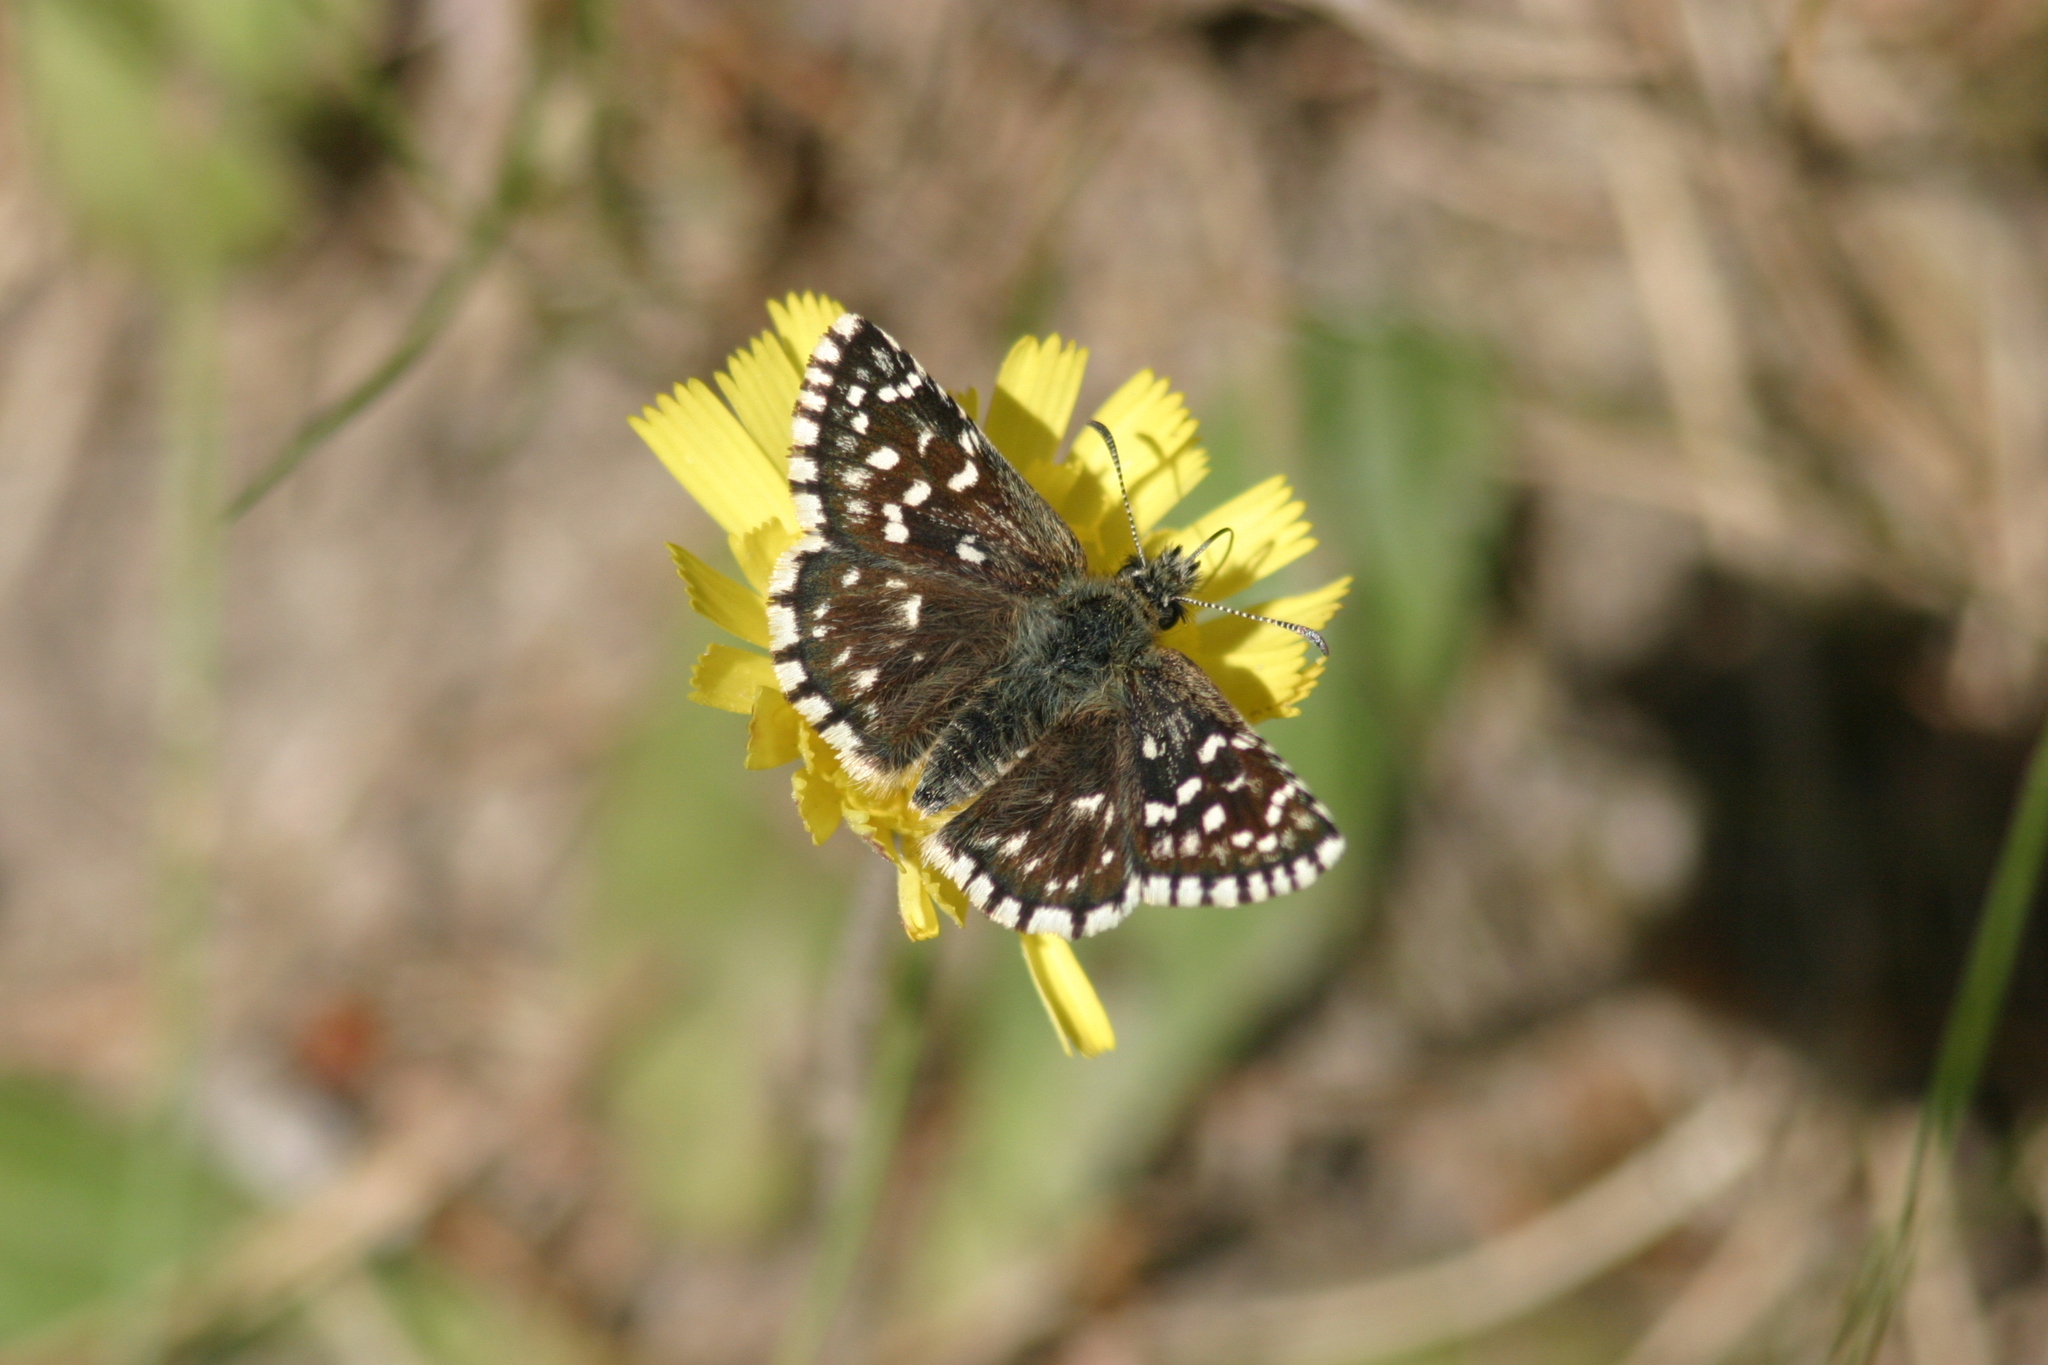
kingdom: Animalia
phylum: Arthropoda
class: Insecta
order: Lepidoptera
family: Hesperiidae
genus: Pyrgus
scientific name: Pyrgus malvae
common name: Grizzled skipper
